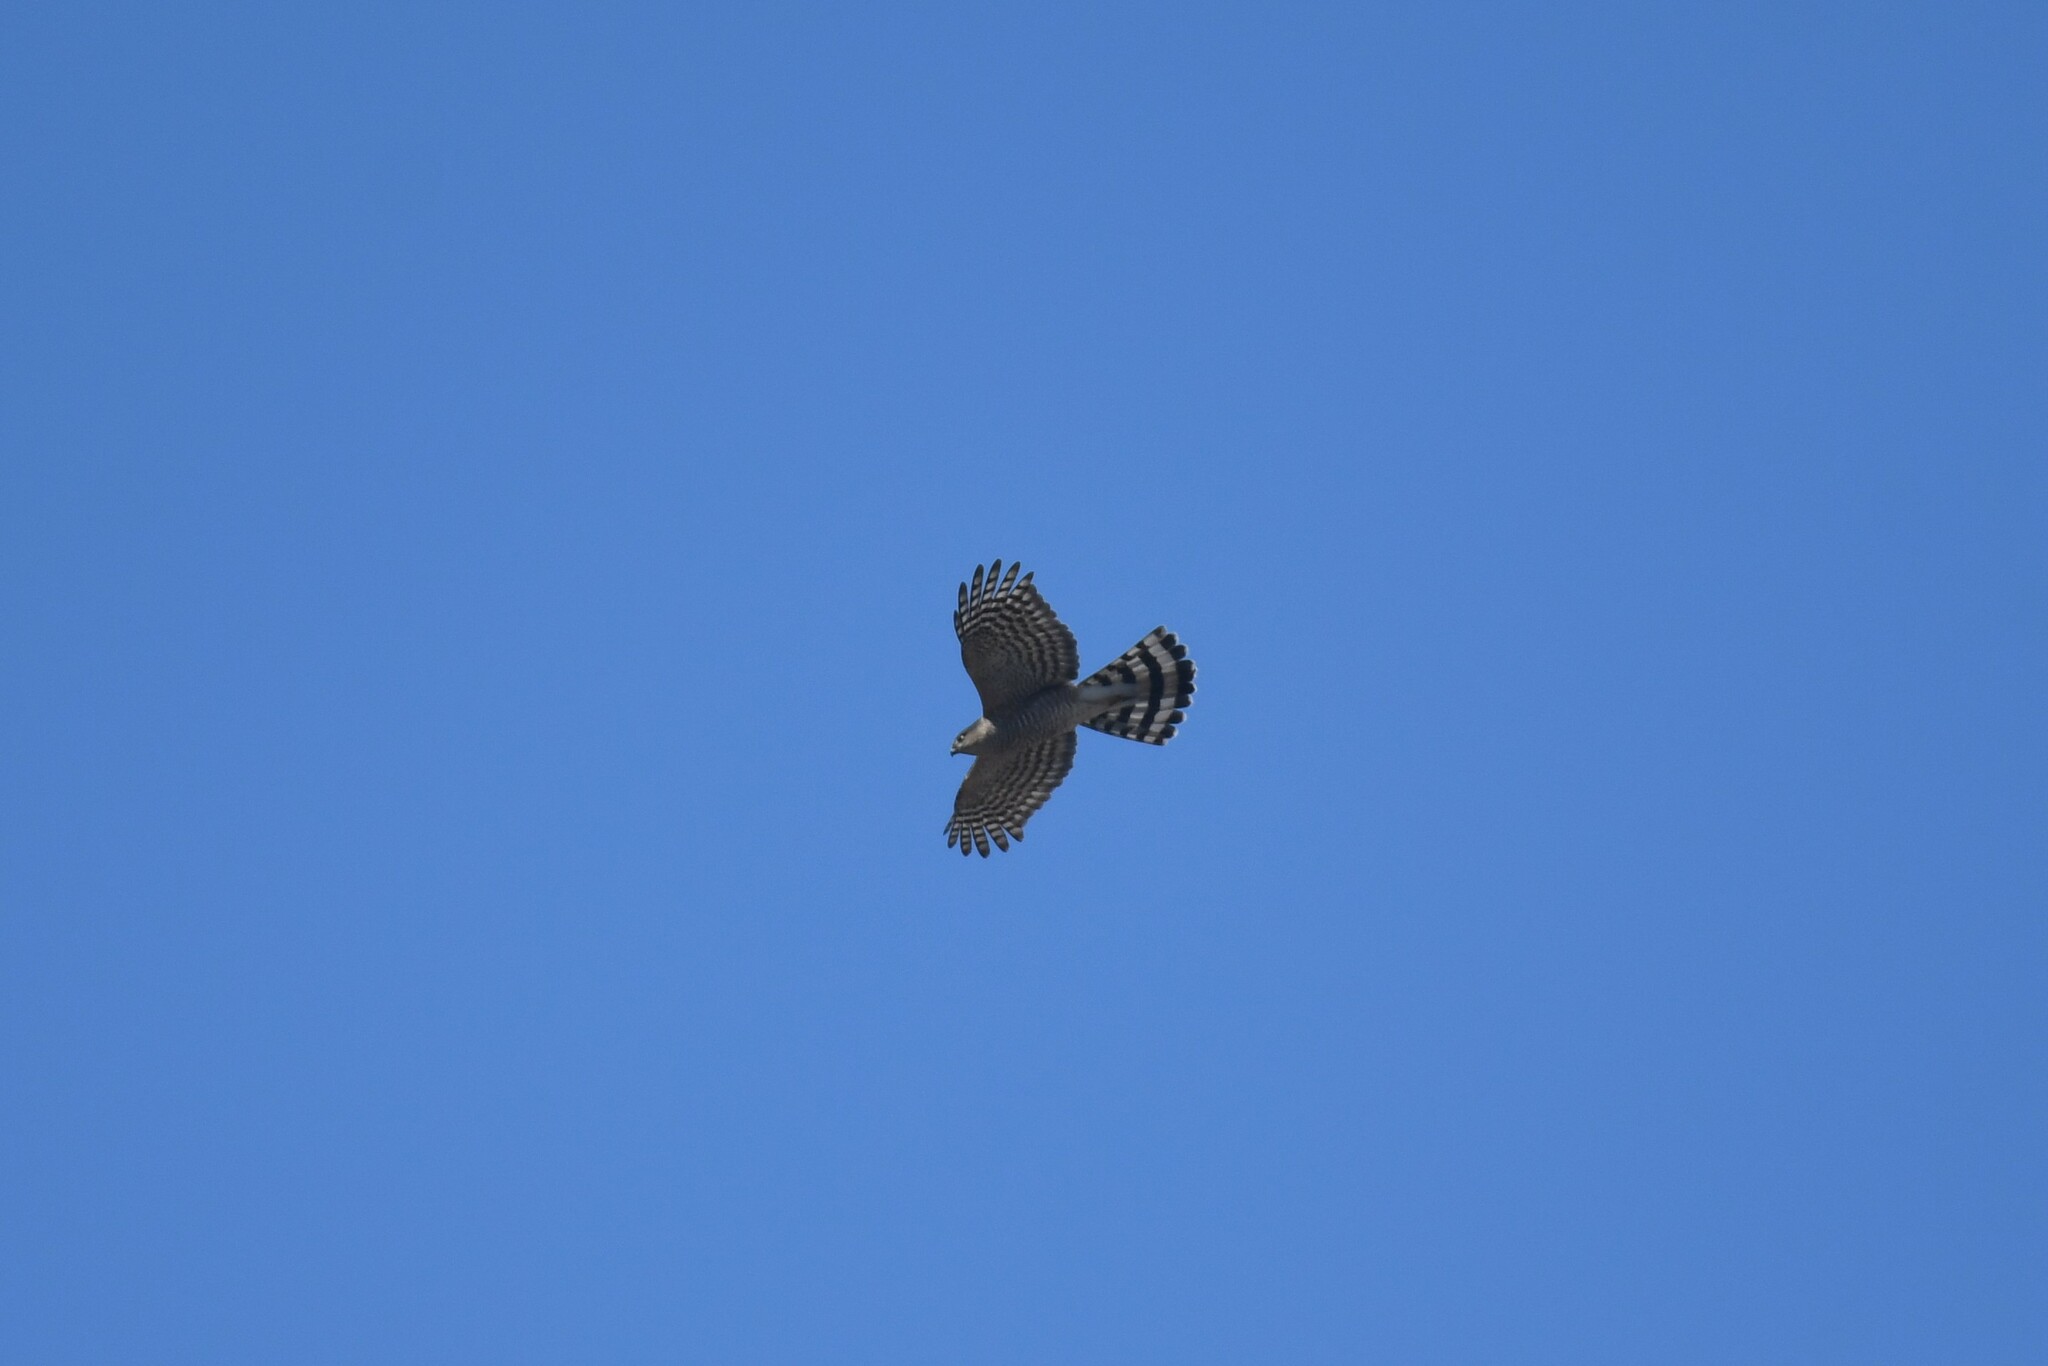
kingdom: Animalia
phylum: Chordata
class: Aves
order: Accipitriformes
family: Accipitridae
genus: Accipiter
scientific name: Accipiter striatus
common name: Sharp-shinned hawk
